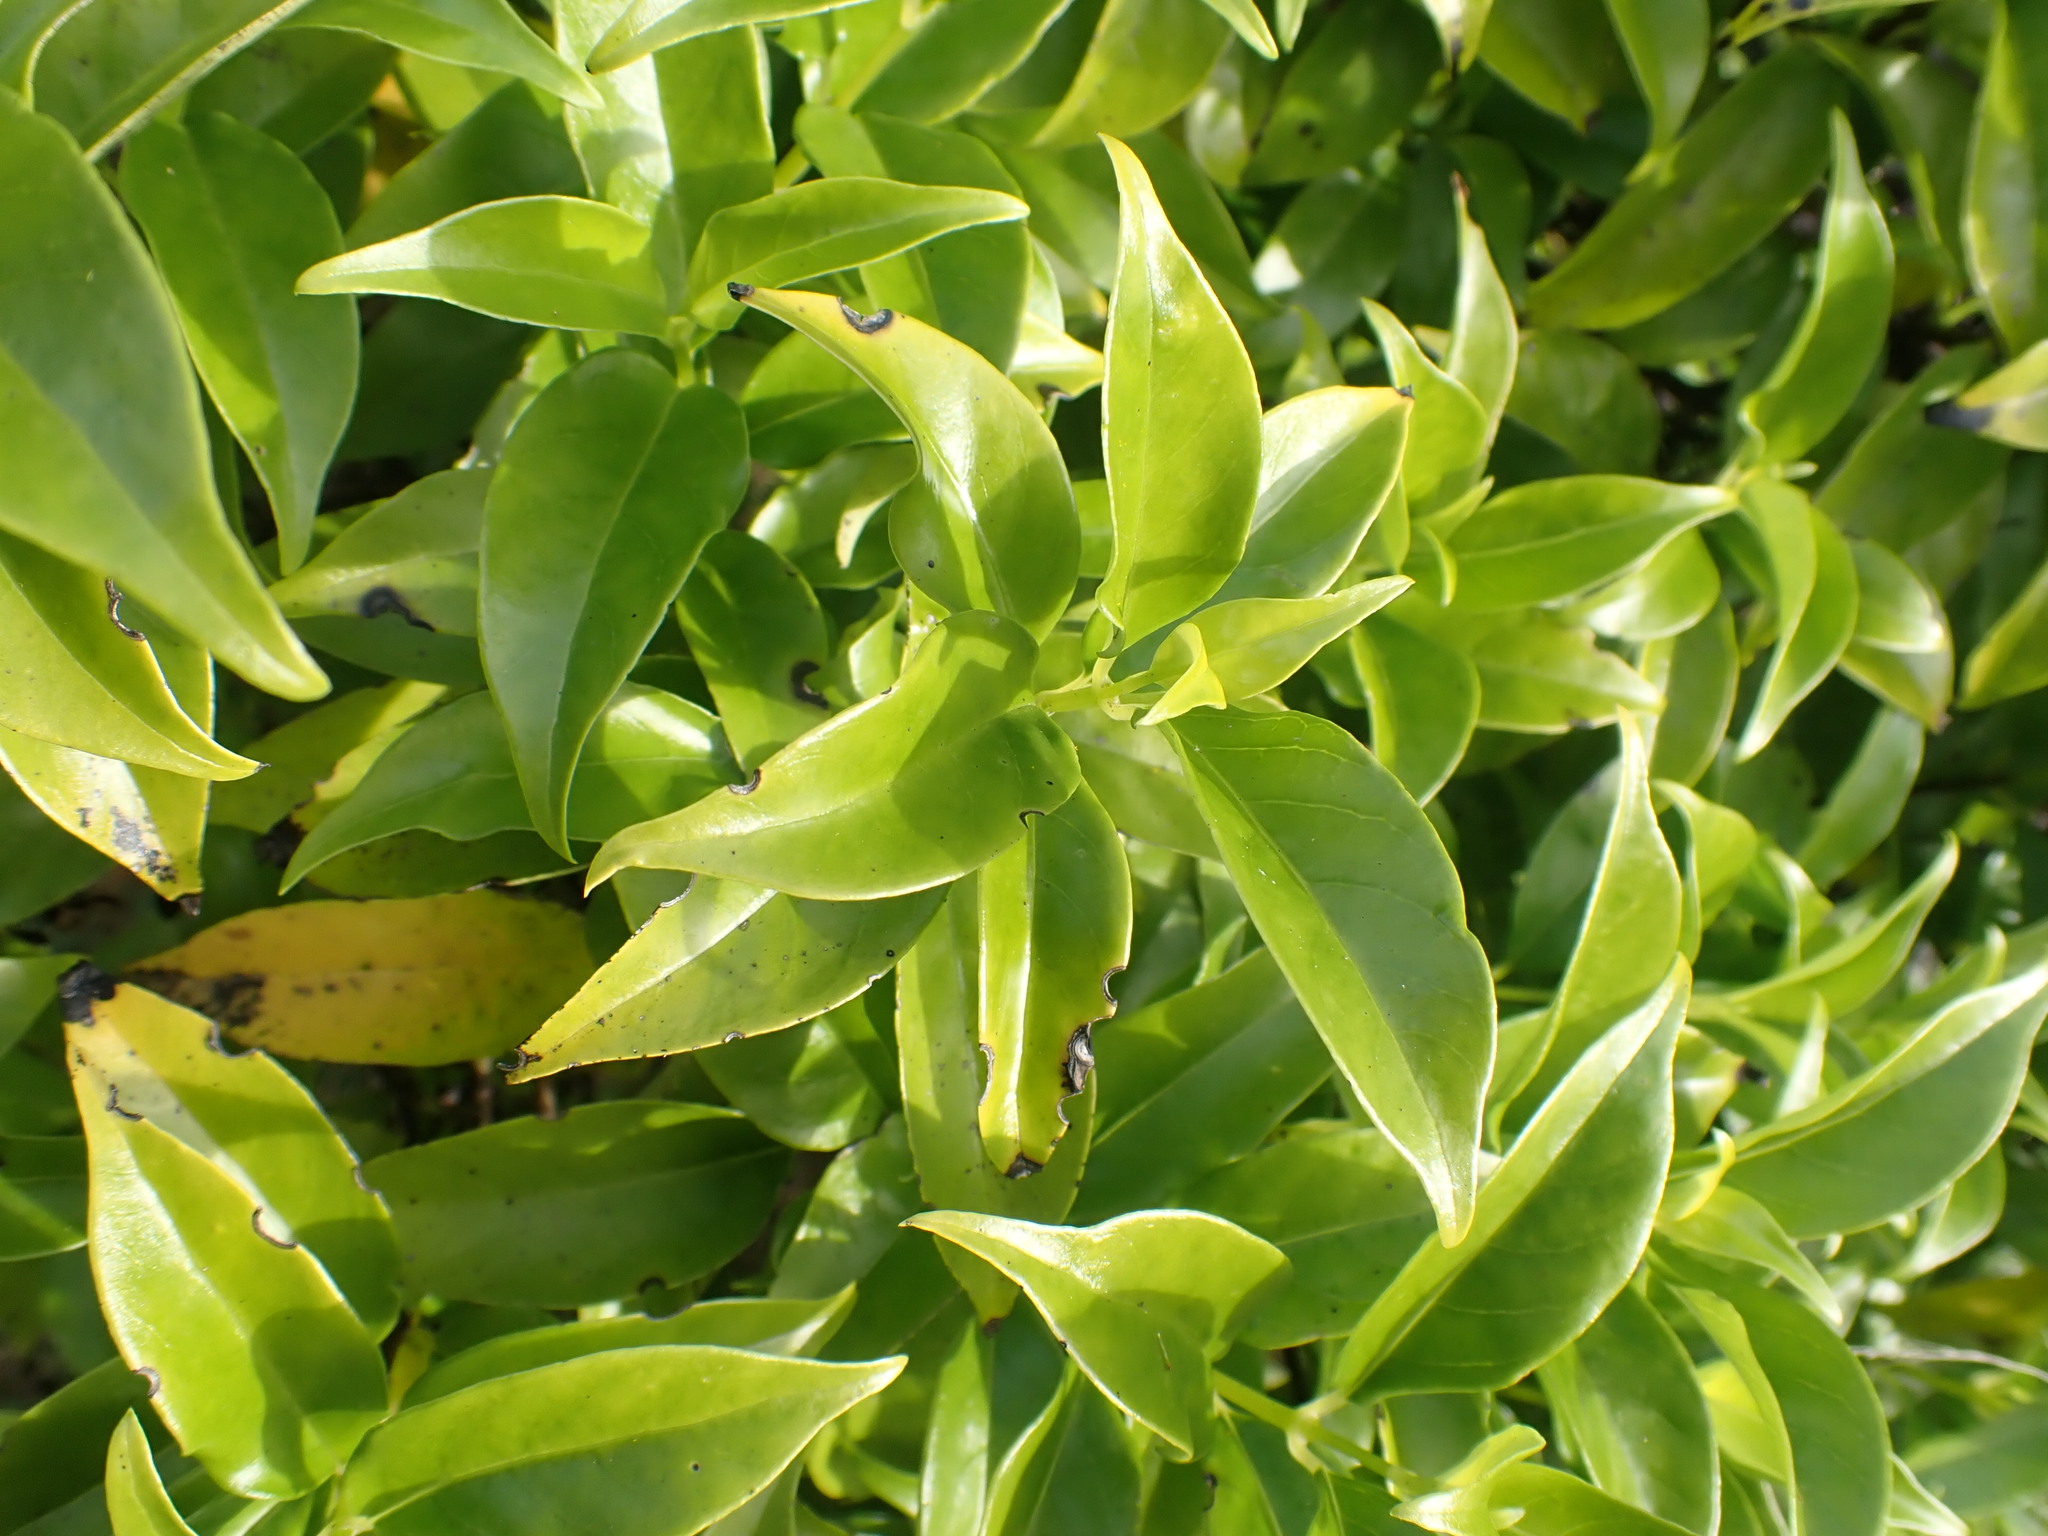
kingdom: Plantae
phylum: Tracheophyta
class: Magnoliopsida
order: Gentianales
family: Loganiaceae
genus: Geniostoma
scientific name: Geniostoma ligustrifolium
